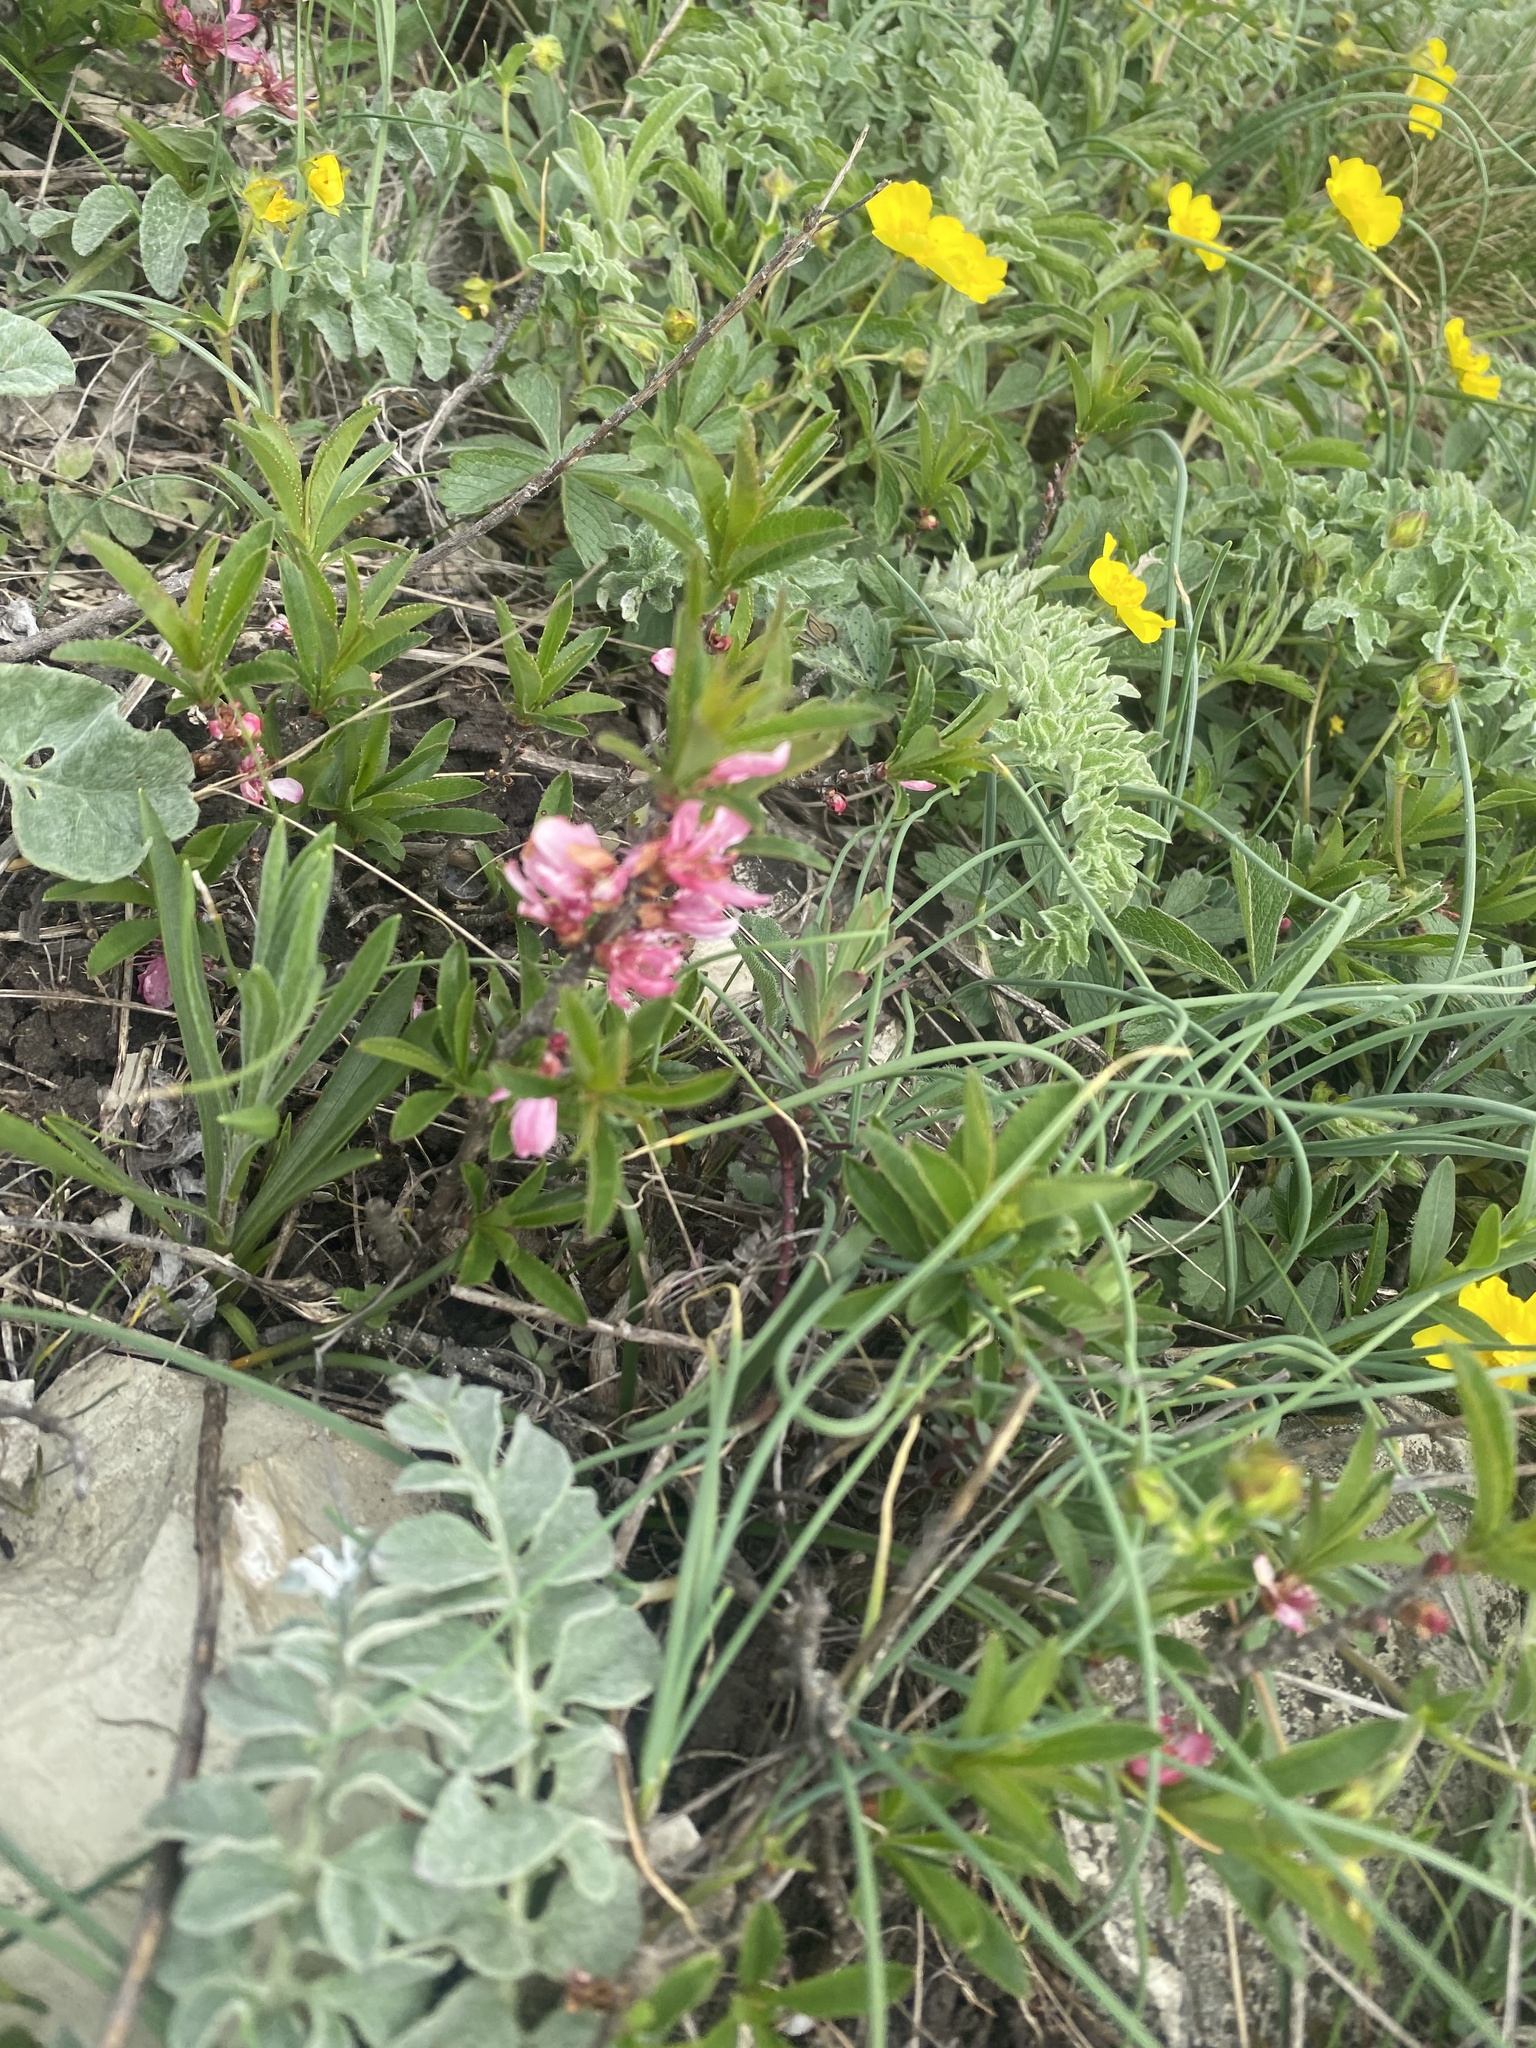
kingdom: Plantae
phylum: Tracheophyta
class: Magnoliopsida
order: Rosales
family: Rosaceae
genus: Prunus
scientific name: Prunus tenella
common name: Dwarf russian almond
